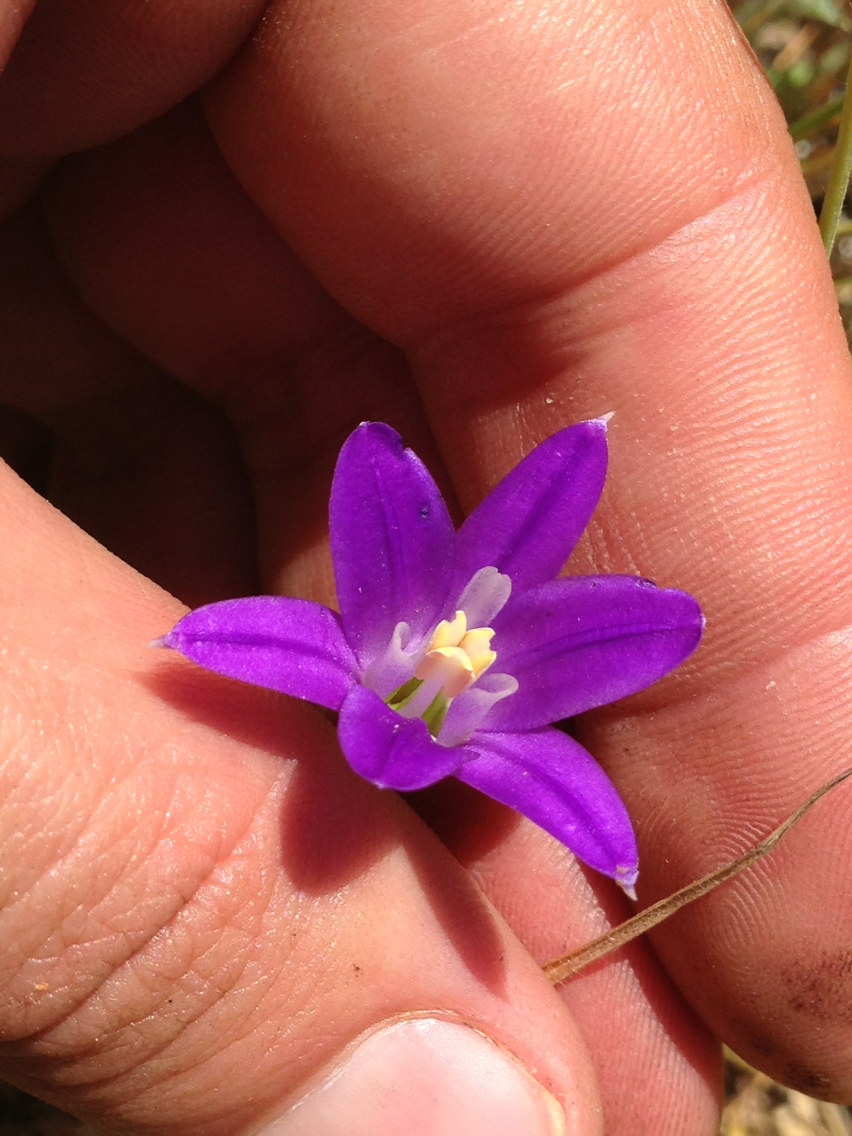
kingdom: Plantae
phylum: Tracheophyta
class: Liliopsida
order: Asparagales
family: Asparagaceae
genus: Brodiaea
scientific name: Brodiaea elegans
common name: Elegant cluster-lily
